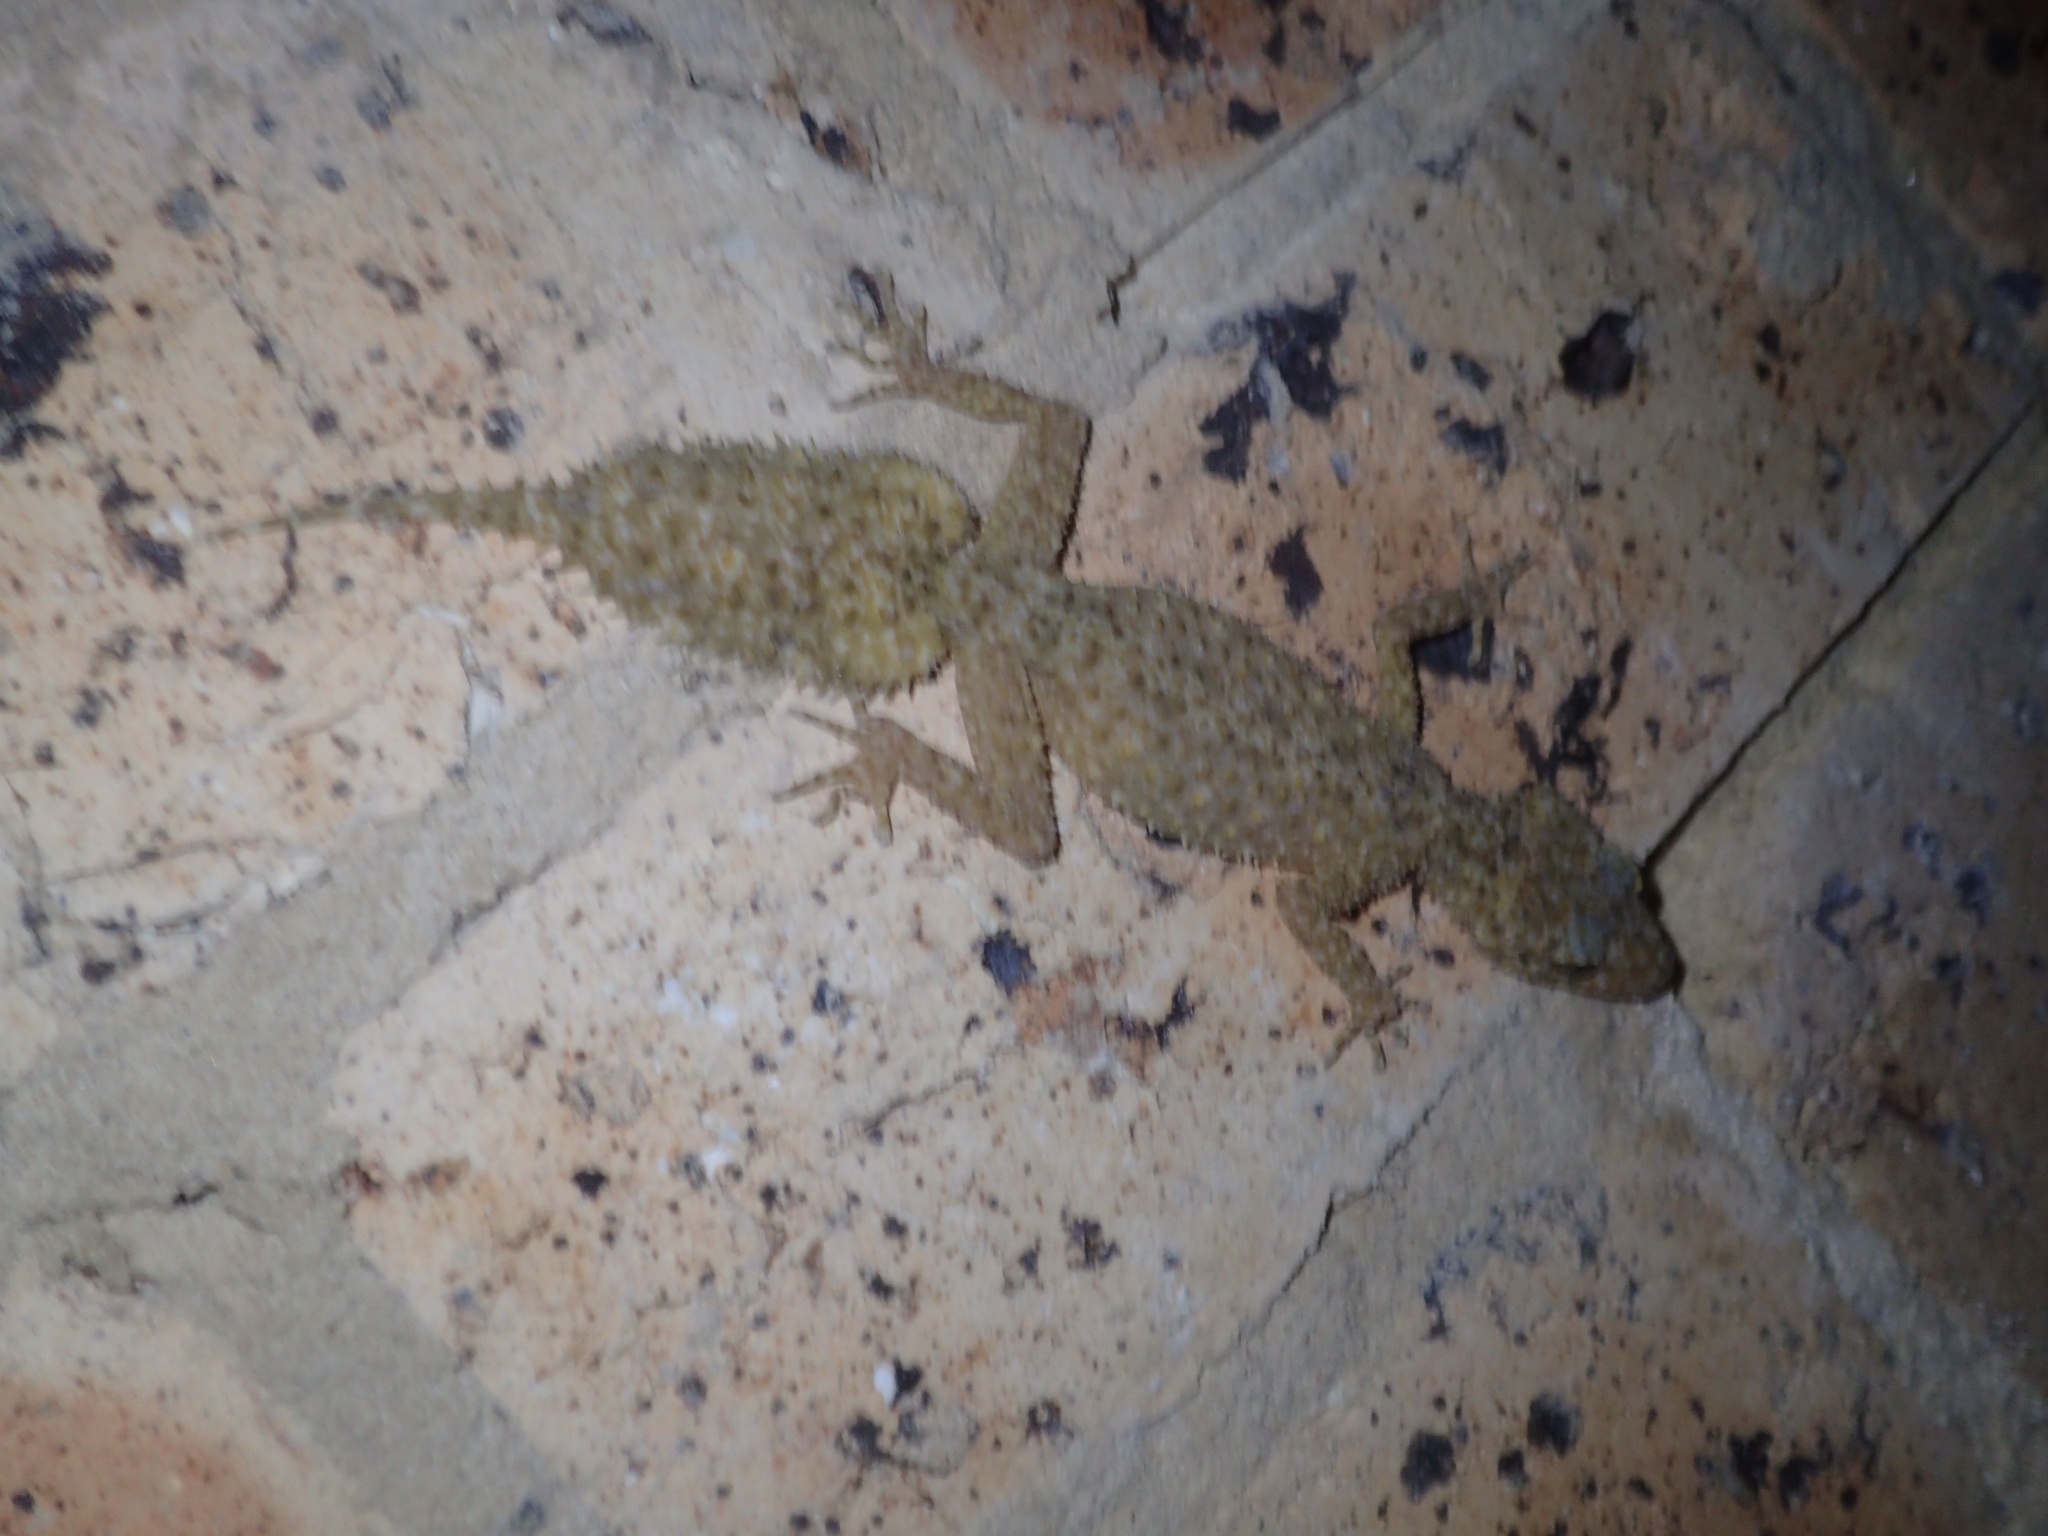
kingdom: Animalia
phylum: Chordata
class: Squamata
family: Carphodactylidae
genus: Phyllurus
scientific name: Phyllurus platurus
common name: Broad-tailed gecko
